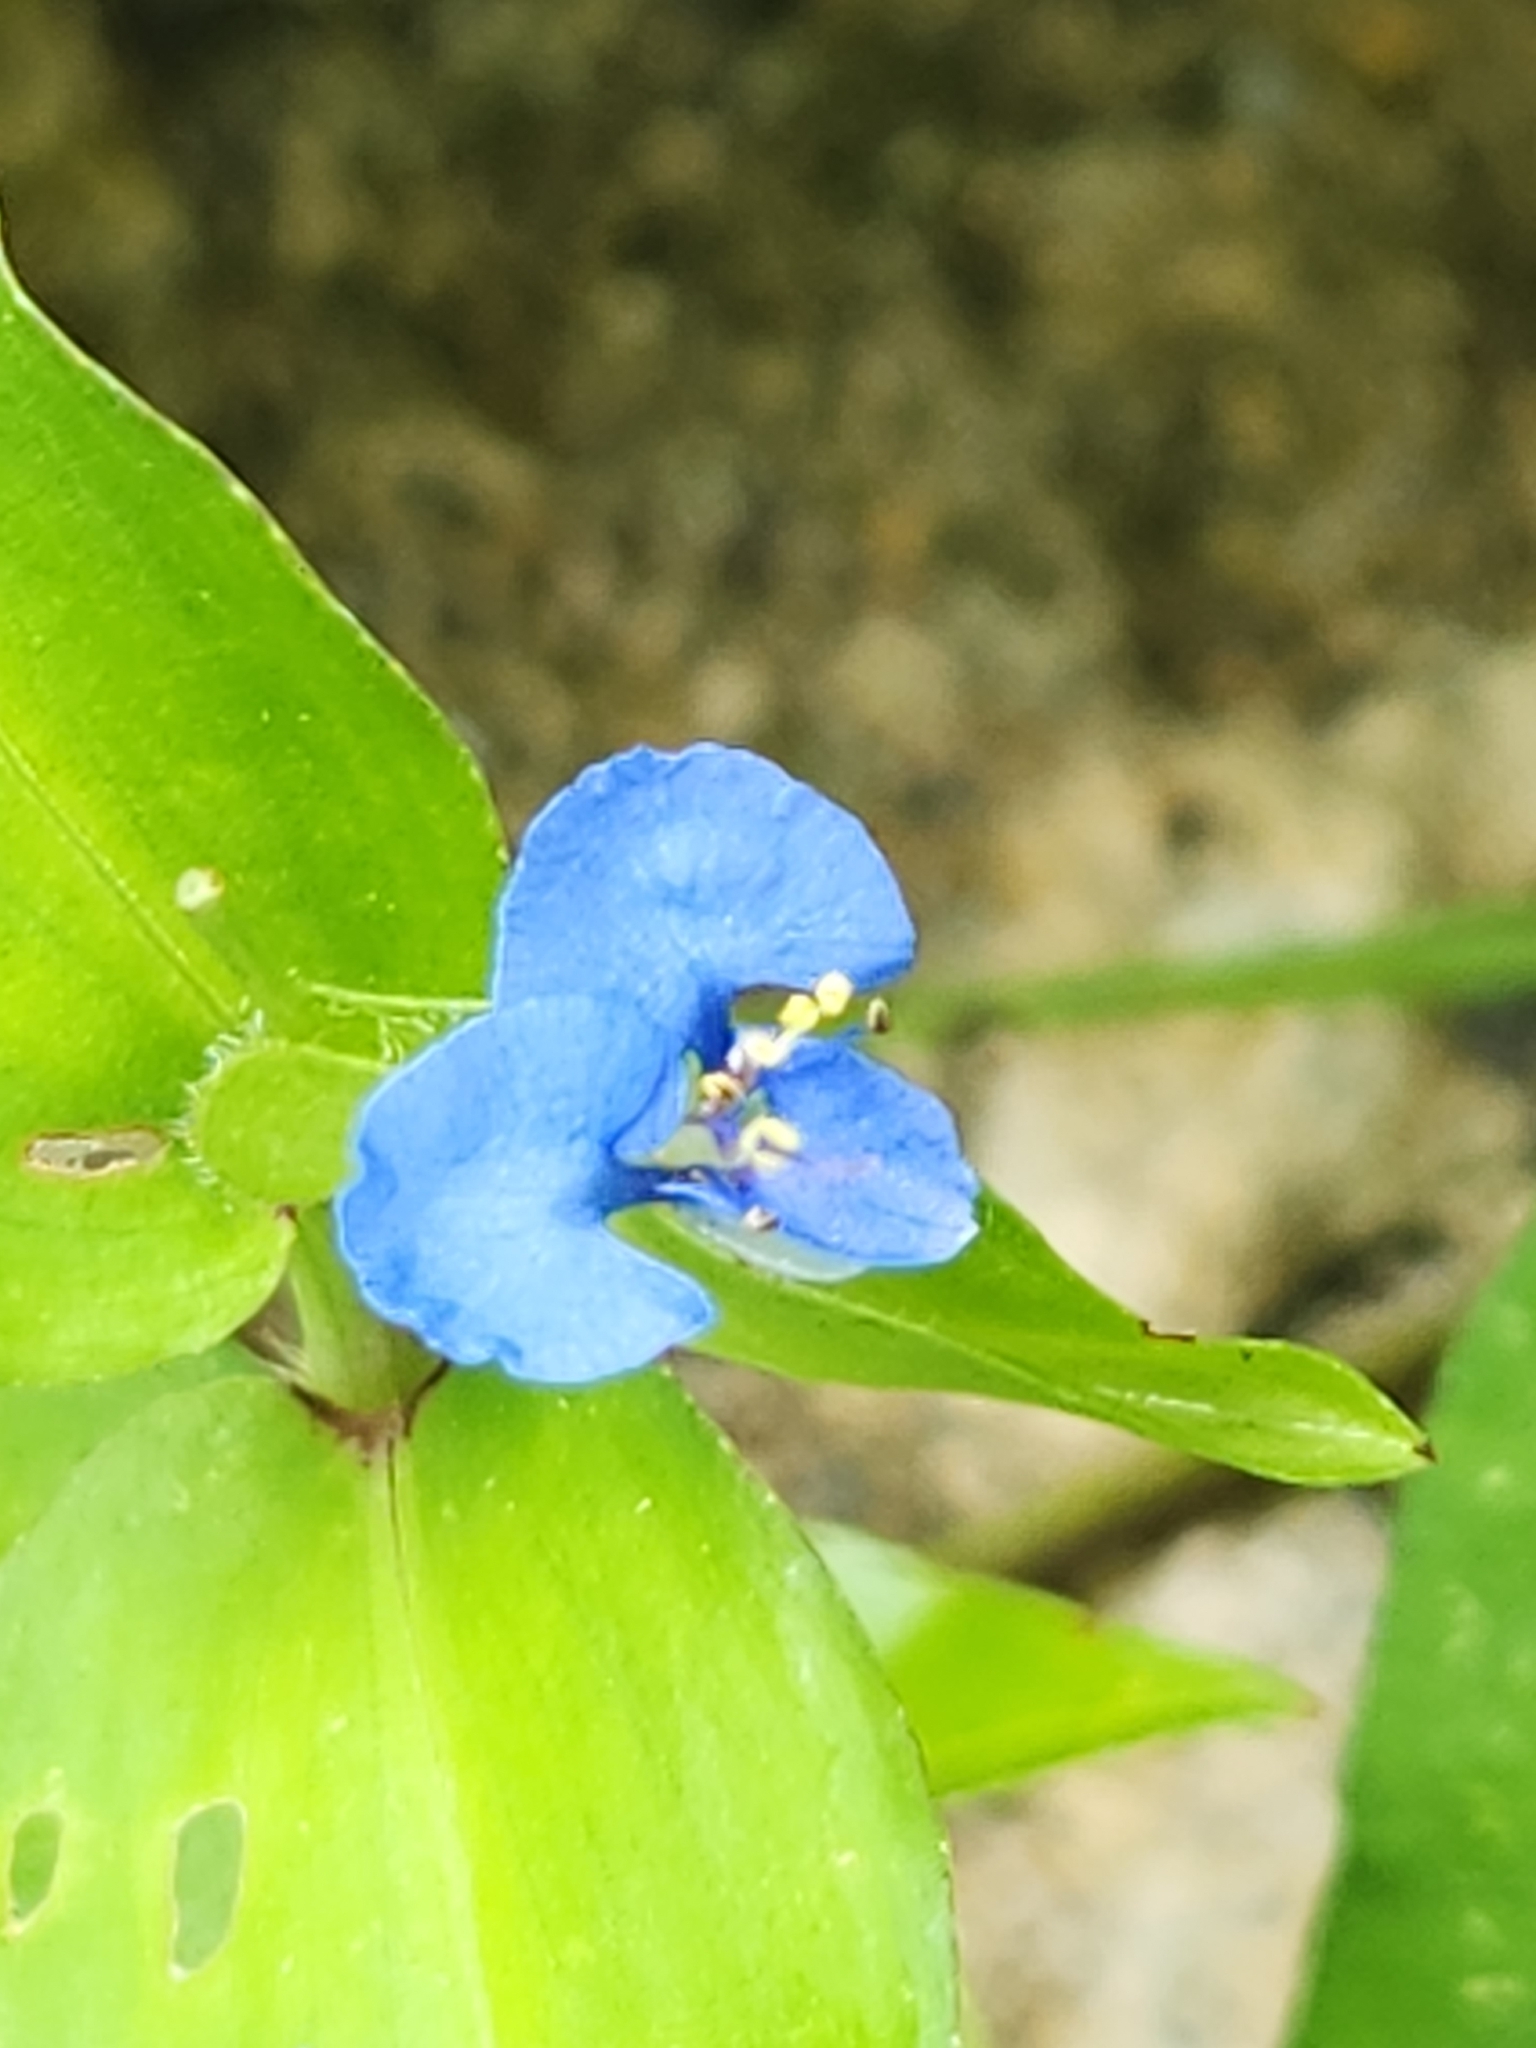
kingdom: Plantae
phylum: Tracheophyta
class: Liliopsida
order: Commelinales
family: Commelinaceae
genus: Commelina
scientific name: Commelina diffusa
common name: Climbing dayflower
